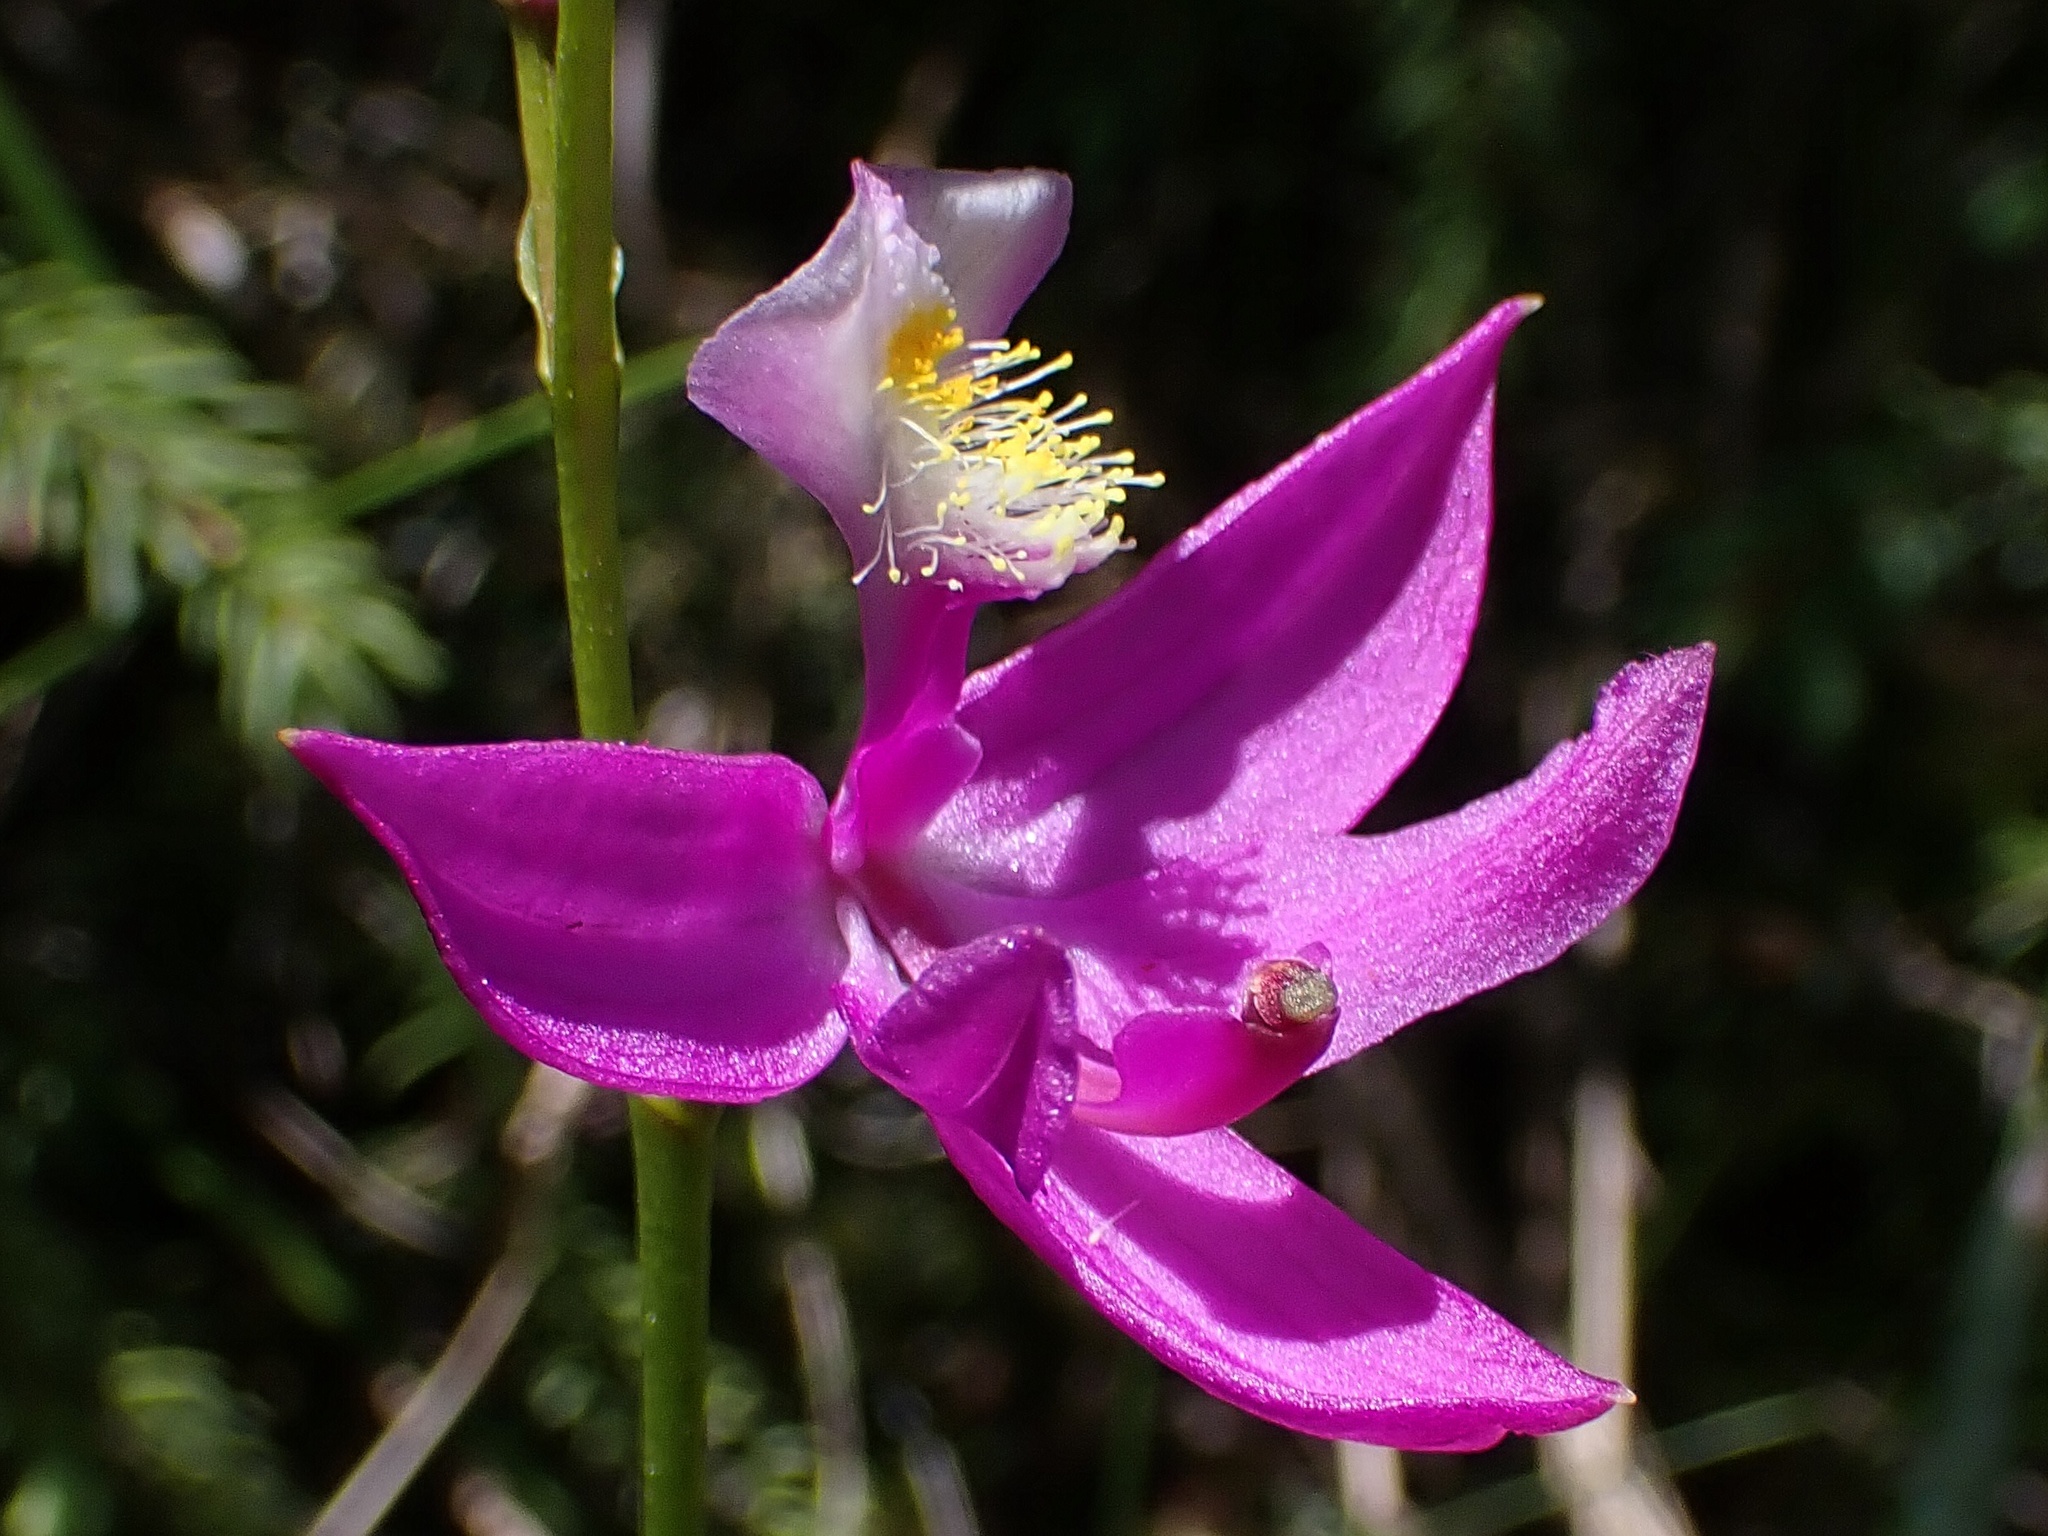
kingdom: Plantae
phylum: Tracheophyta
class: Liliopsida
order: Asparagales
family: Orchidaceae
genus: Calopogon
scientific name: Calopogon tuberosus
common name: Grass-pink
